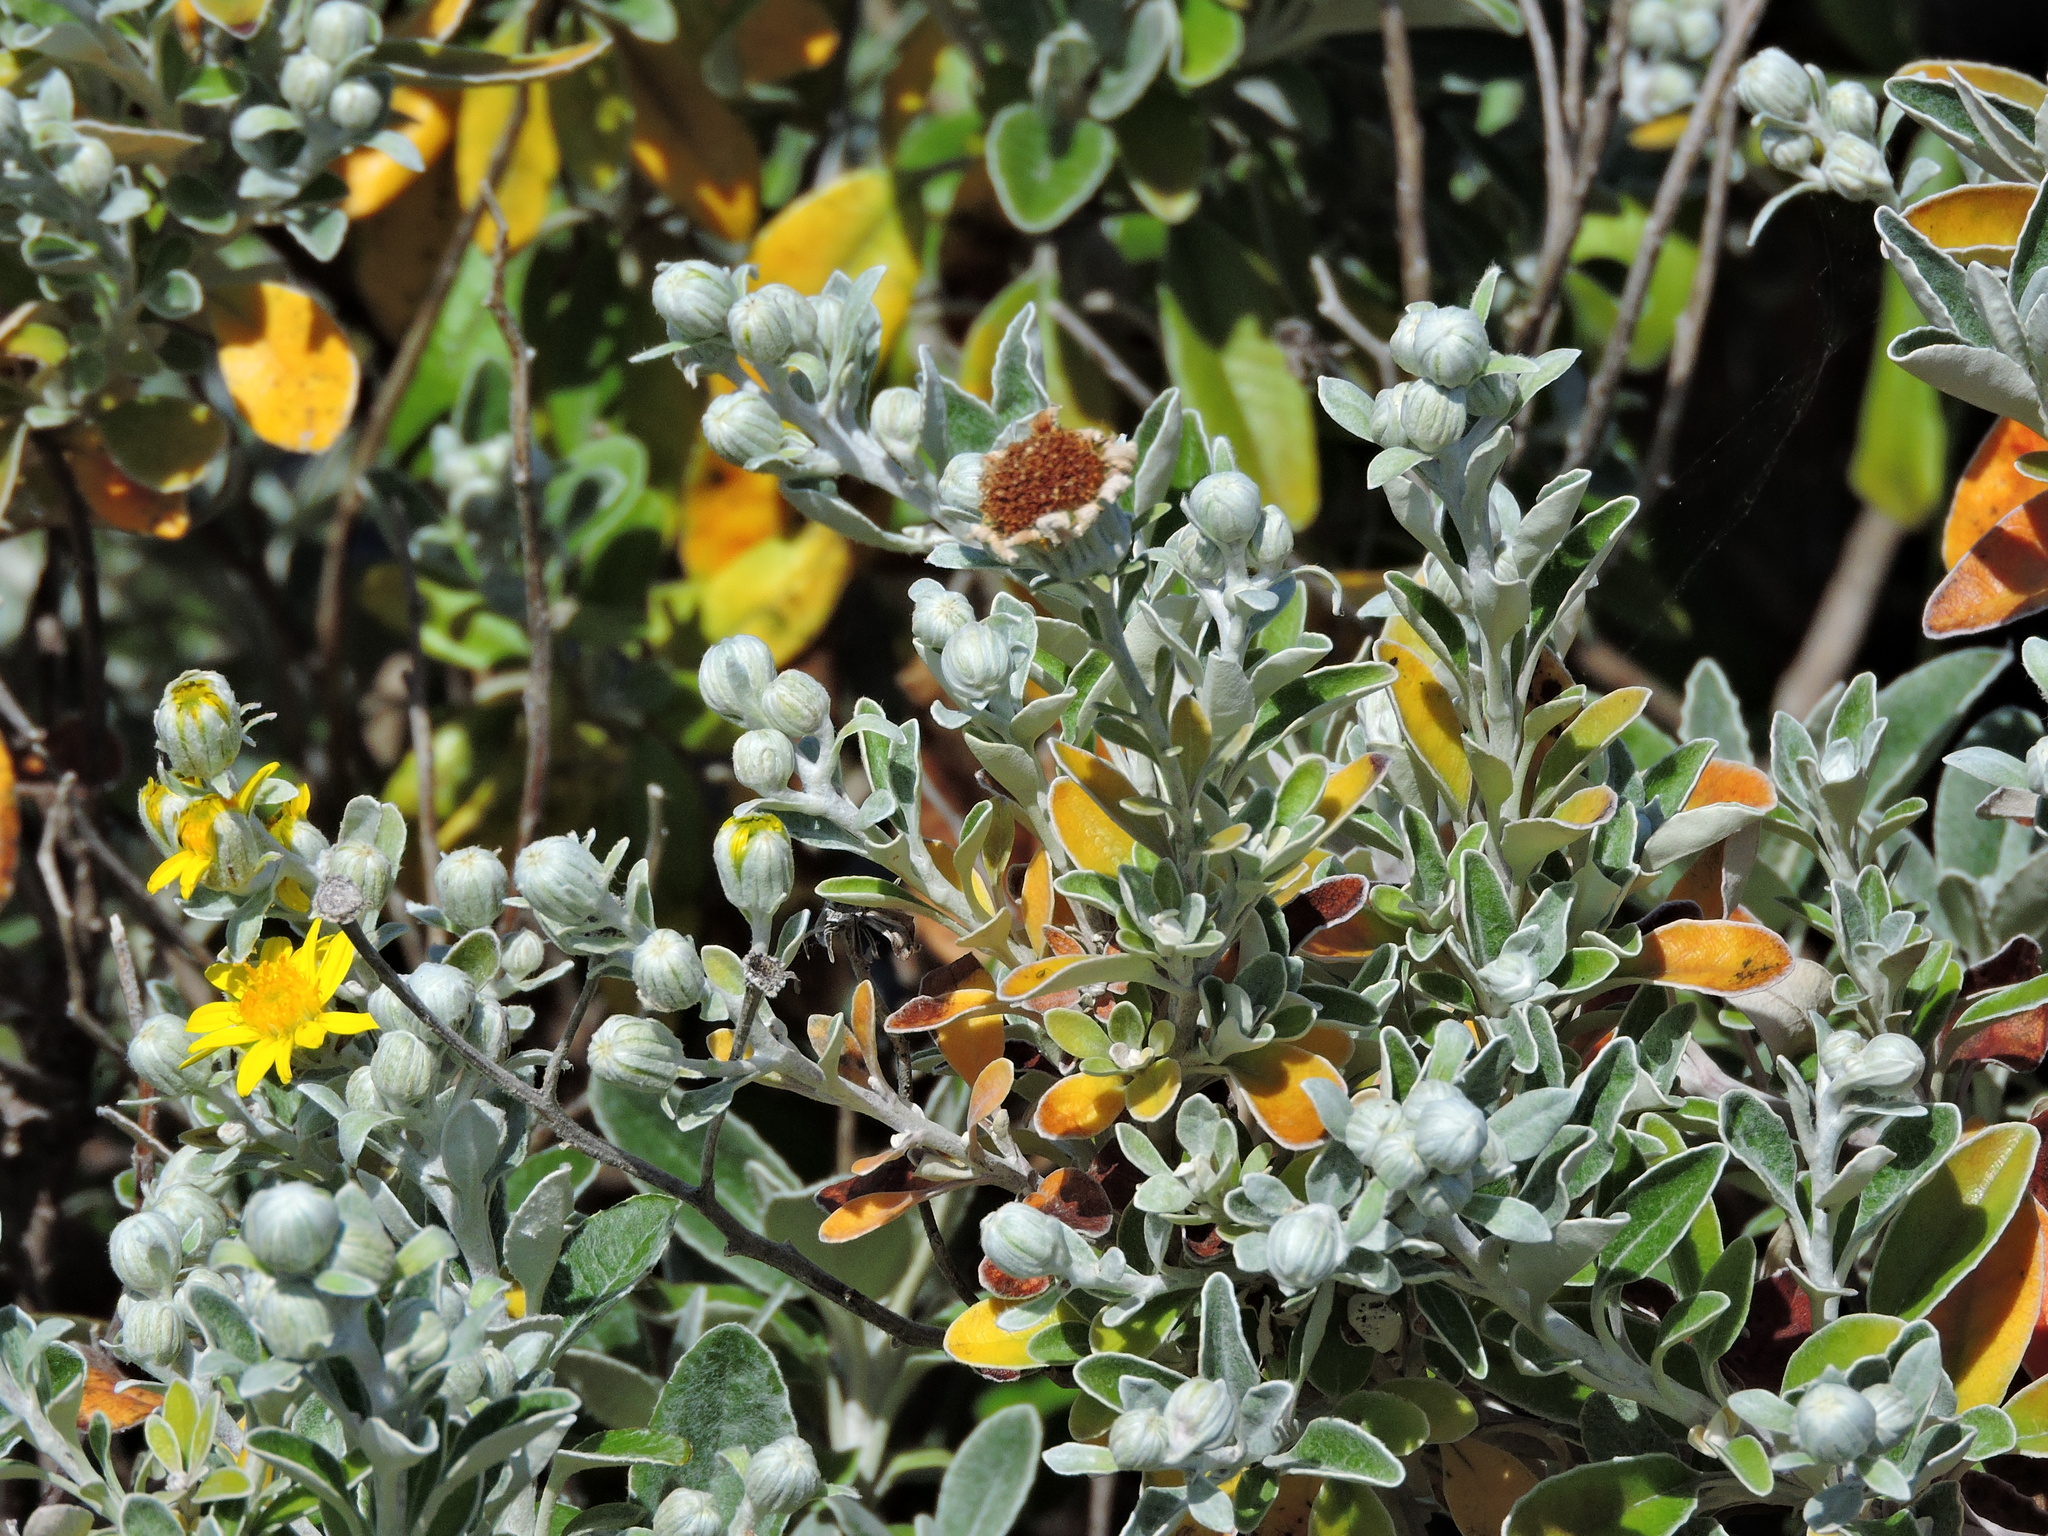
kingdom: Plantae
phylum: Tracheophyta
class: Magnoliopsida
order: Asterales
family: Asteraceae
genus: Brachyglottis
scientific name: Brachyglottis jubar
